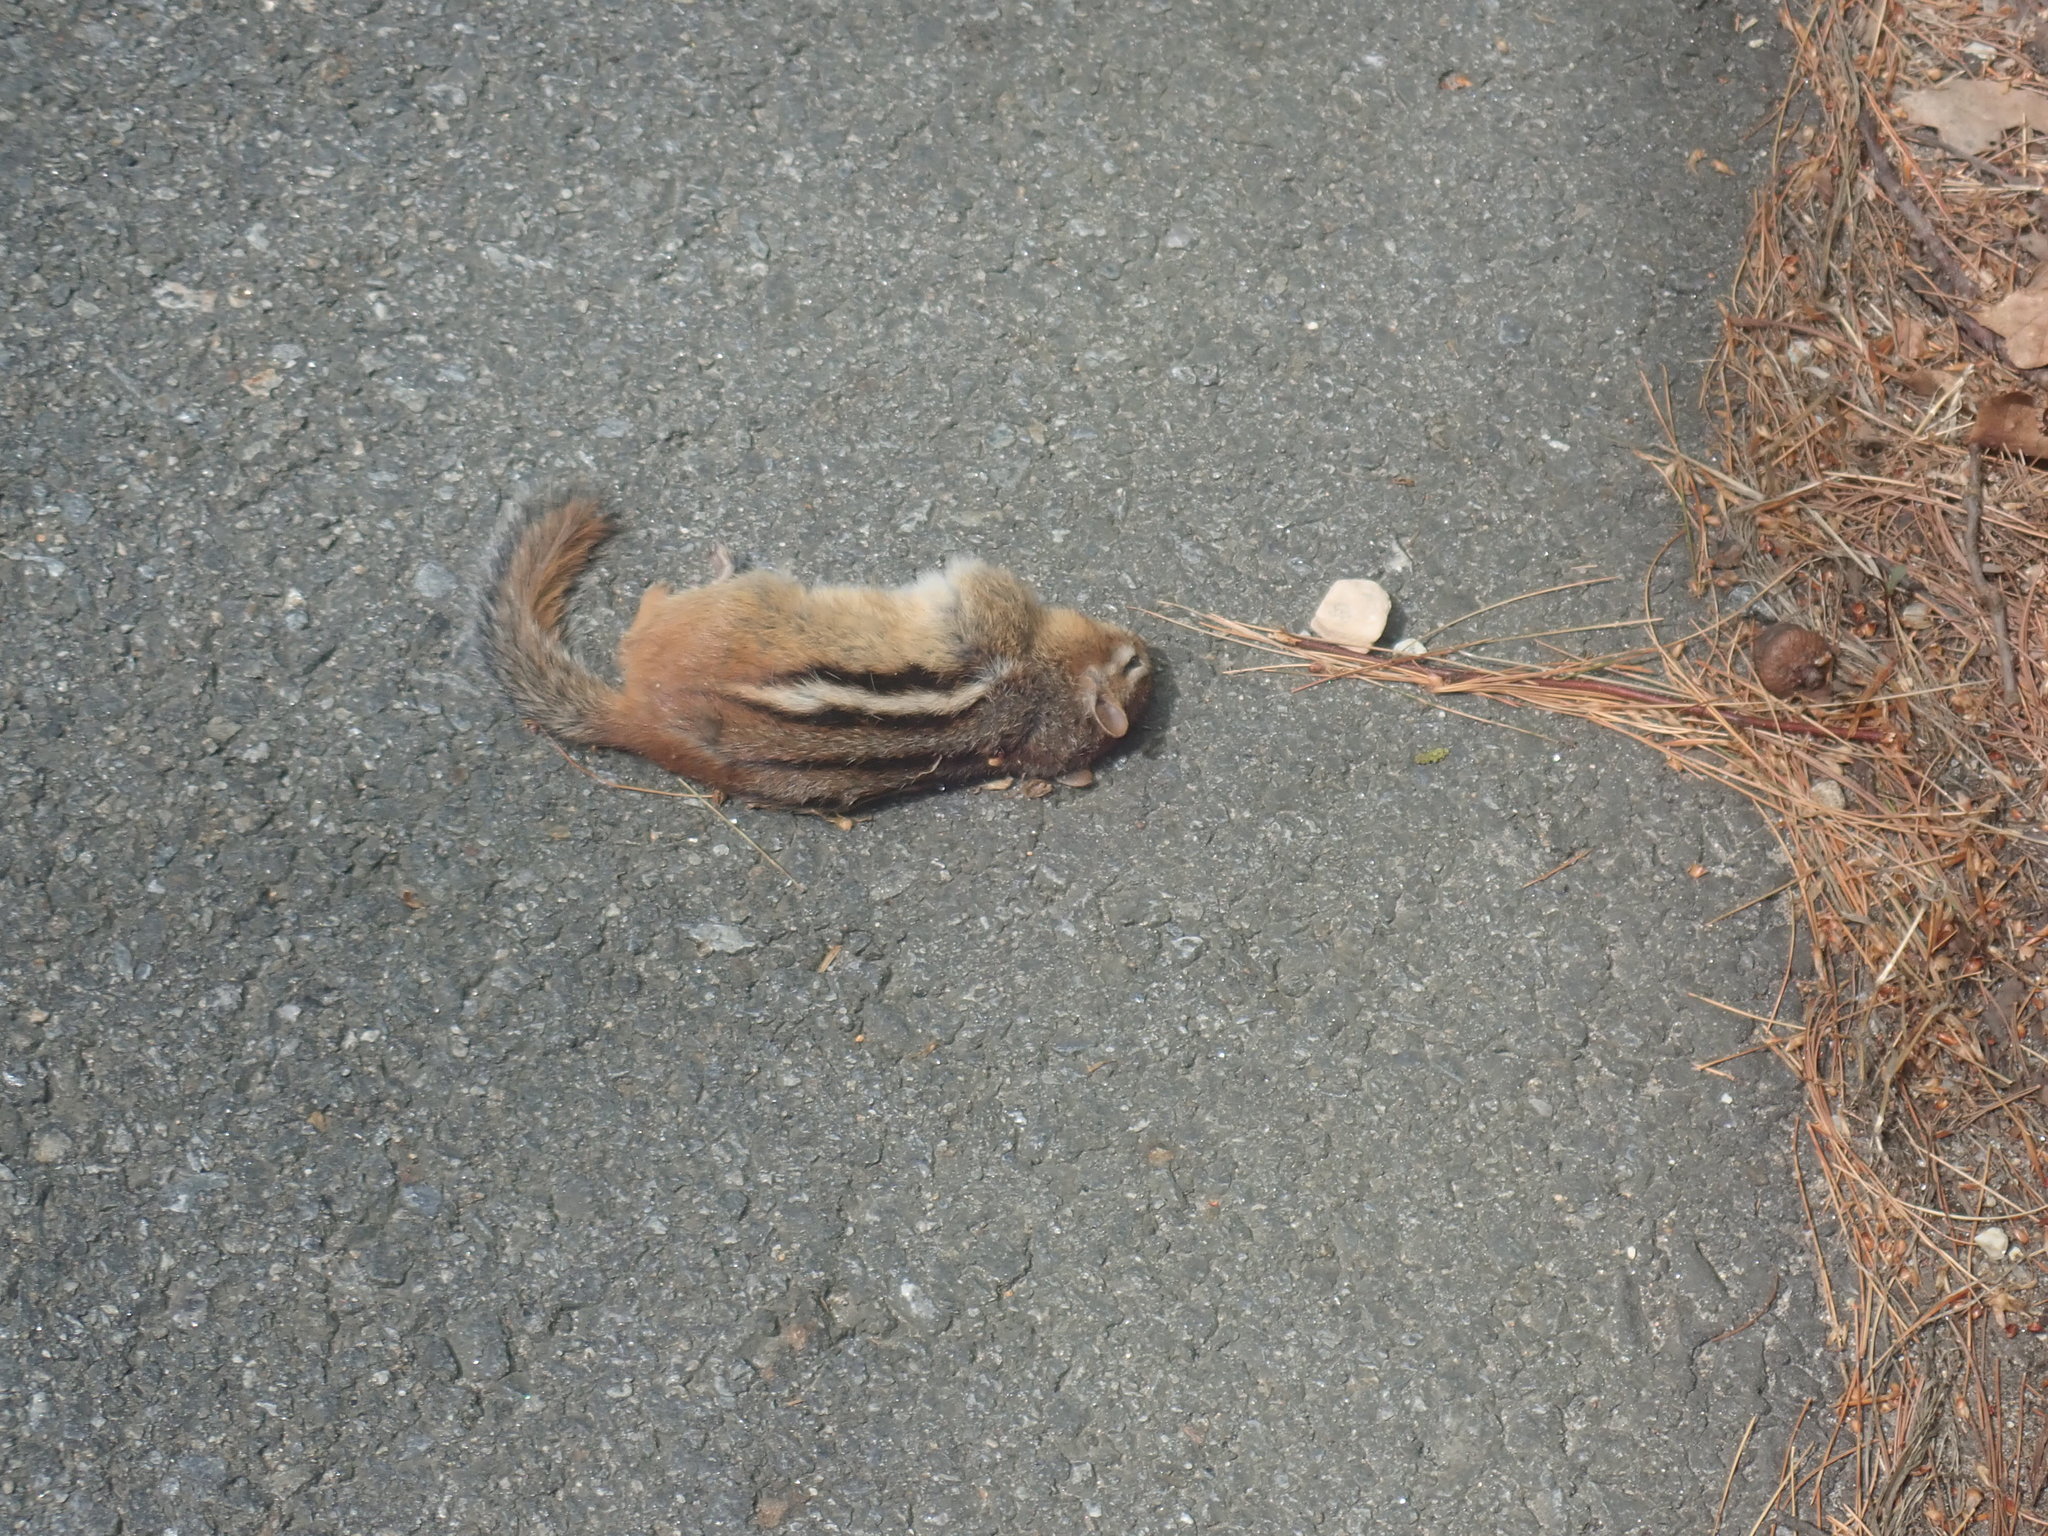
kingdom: Animalia
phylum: Chordata
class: Mammalia
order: Rodentia
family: Sciuridae
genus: Tamias
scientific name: Tamias striatus
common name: Eastern chipmunk
